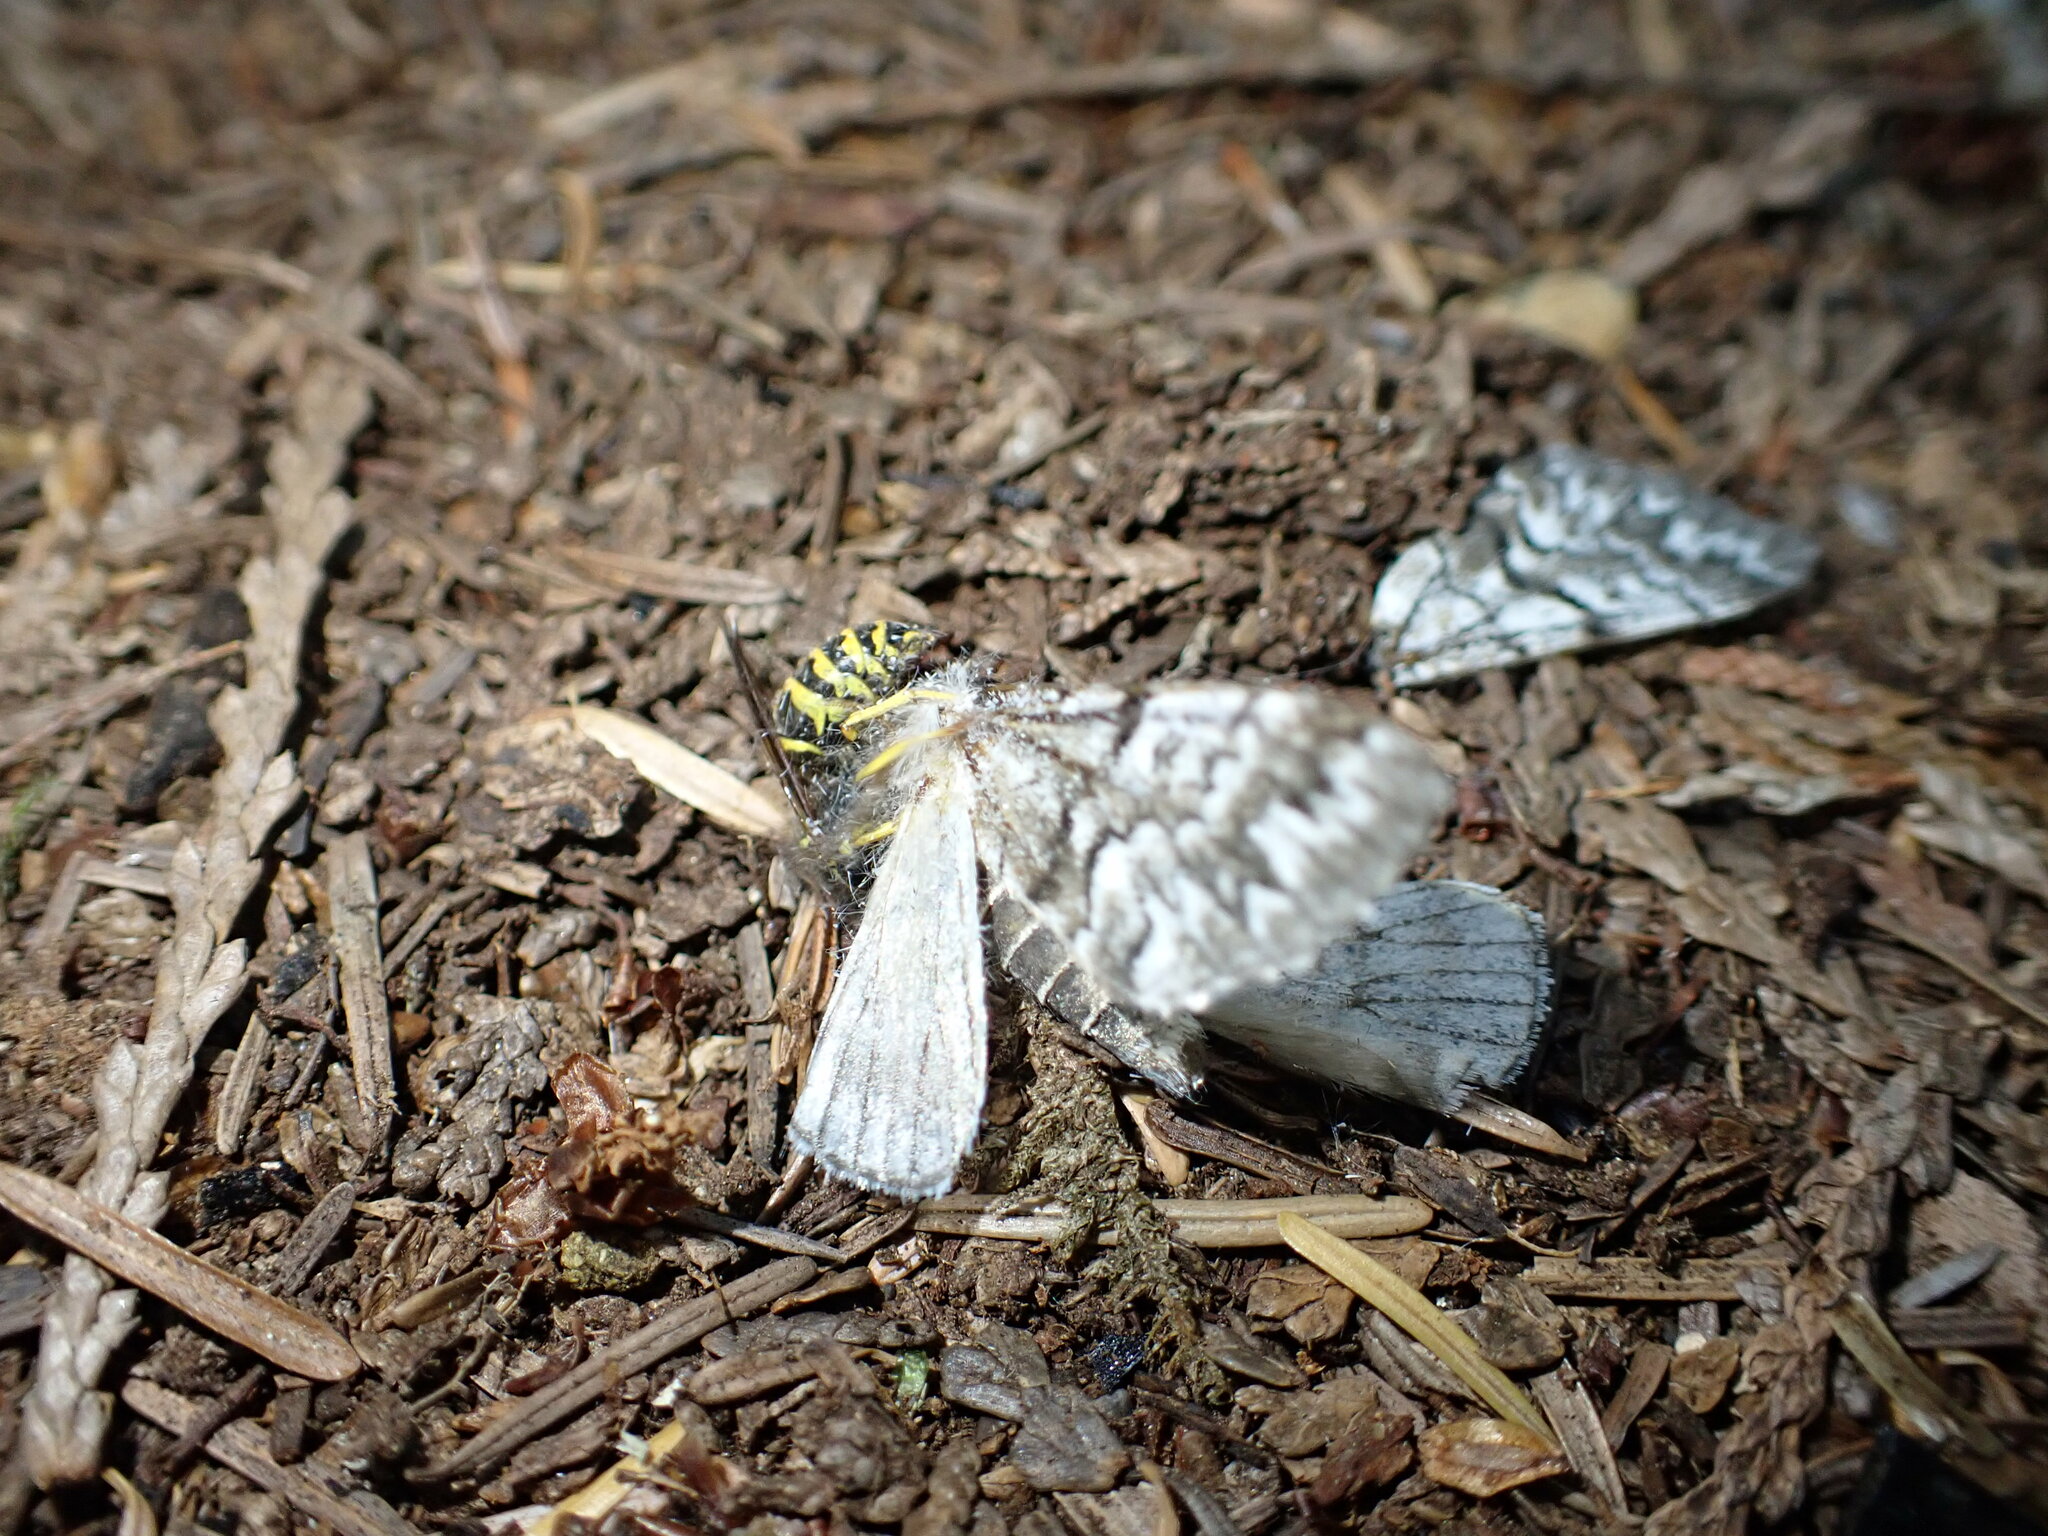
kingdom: Animalia
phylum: Arthropoda
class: Insecta
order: Hymenoptera
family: Vespidae
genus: Vespula
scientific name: Vespula alascensis
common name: Alaska yellowjacket
